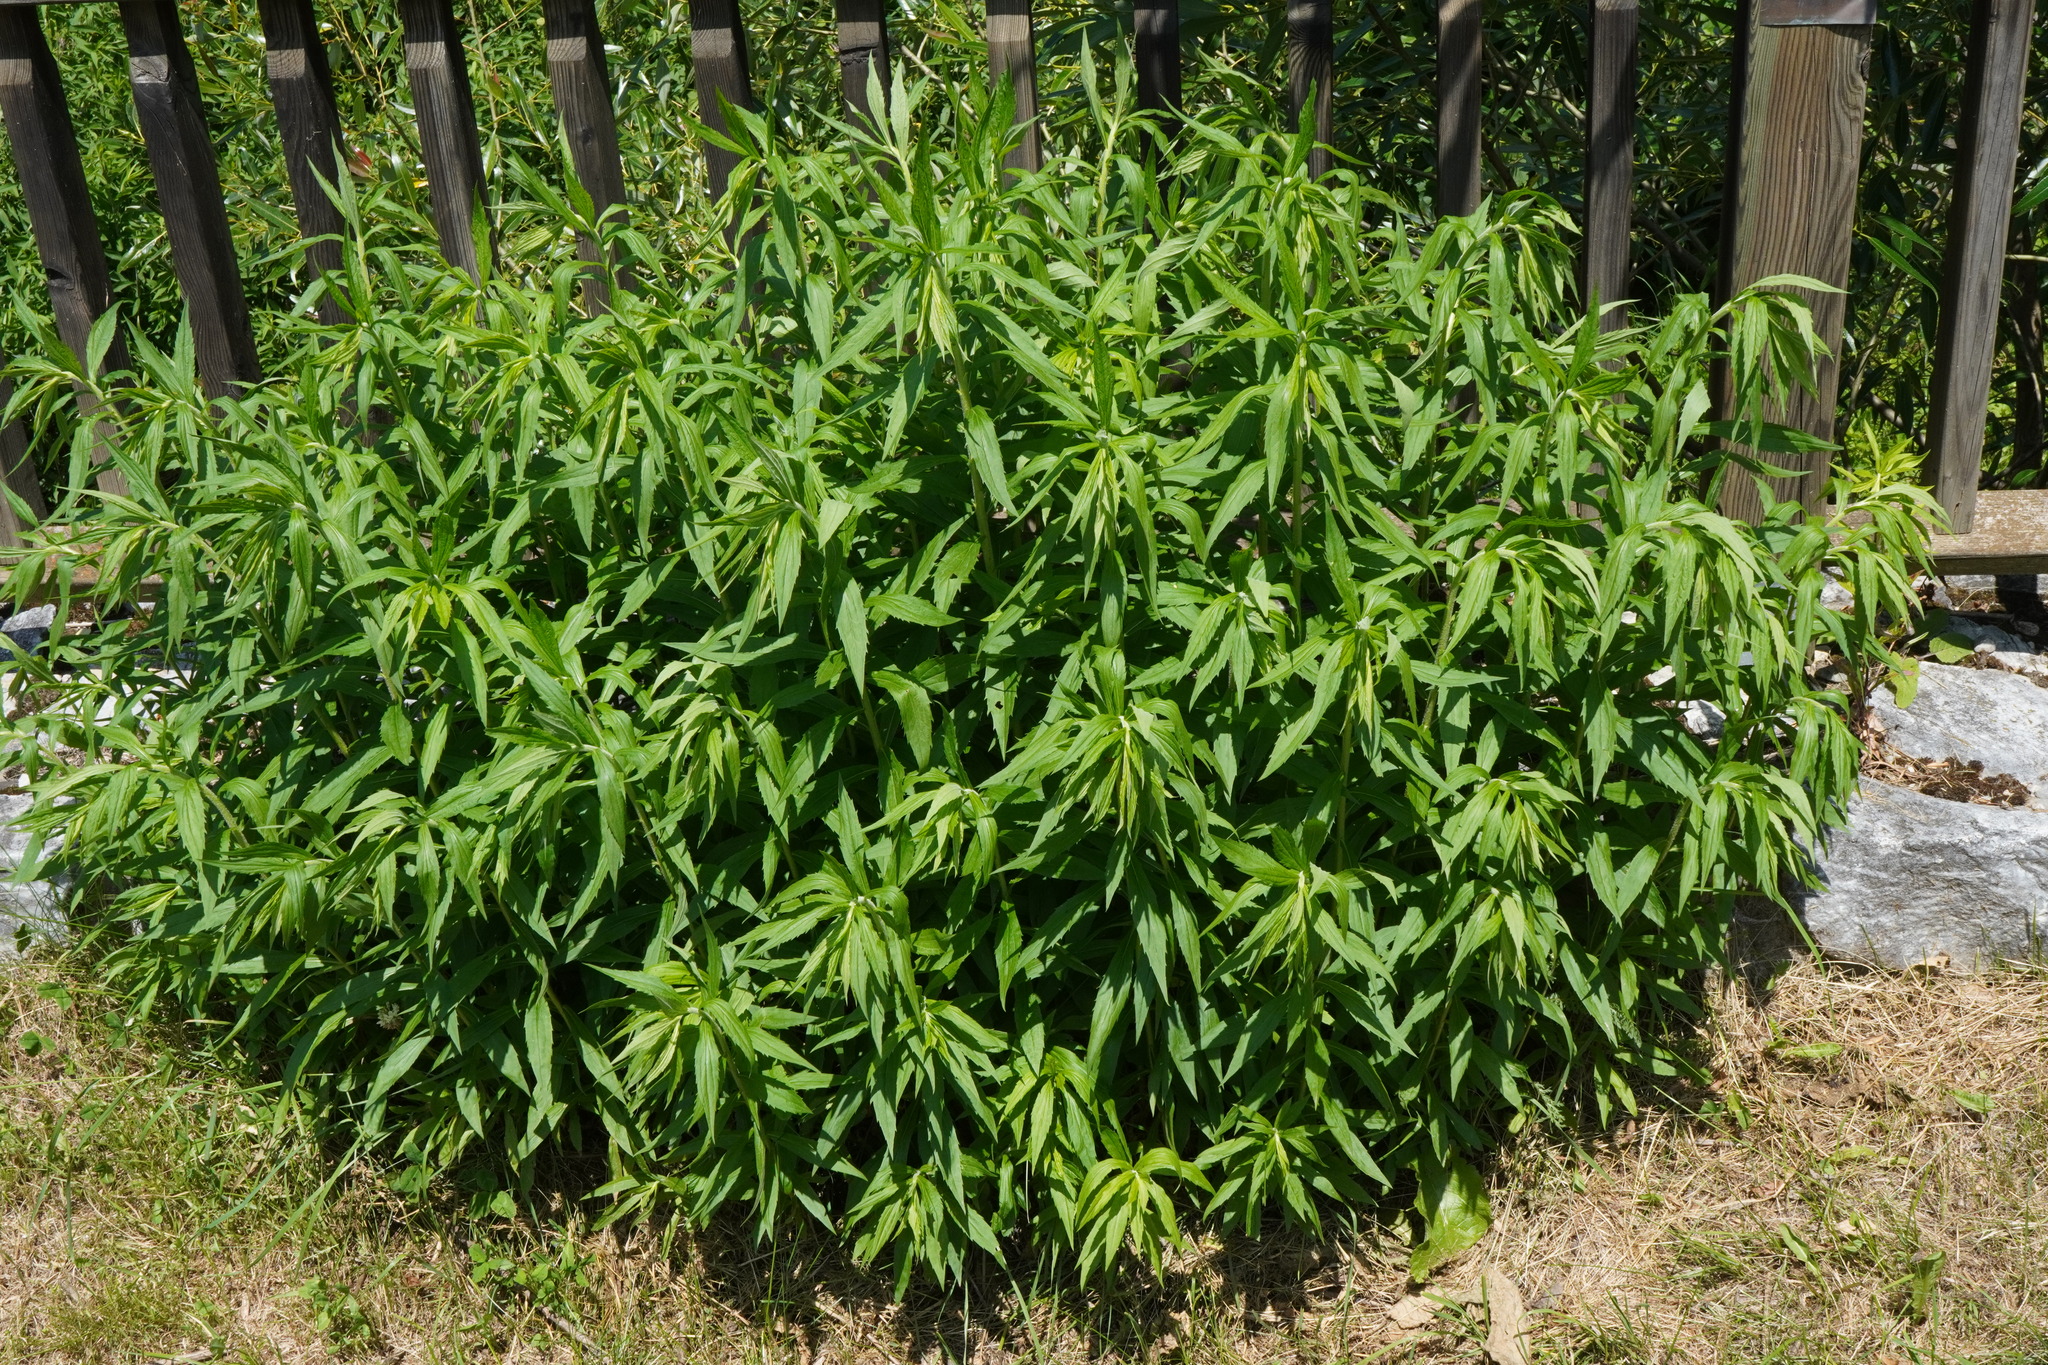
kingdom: Plantae
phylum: Tracheophyta
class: Magnoliopsida
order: Asterales
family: Asteraceae
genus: Solidago
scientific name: Solidago canadensis
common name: Canada goldenrod
